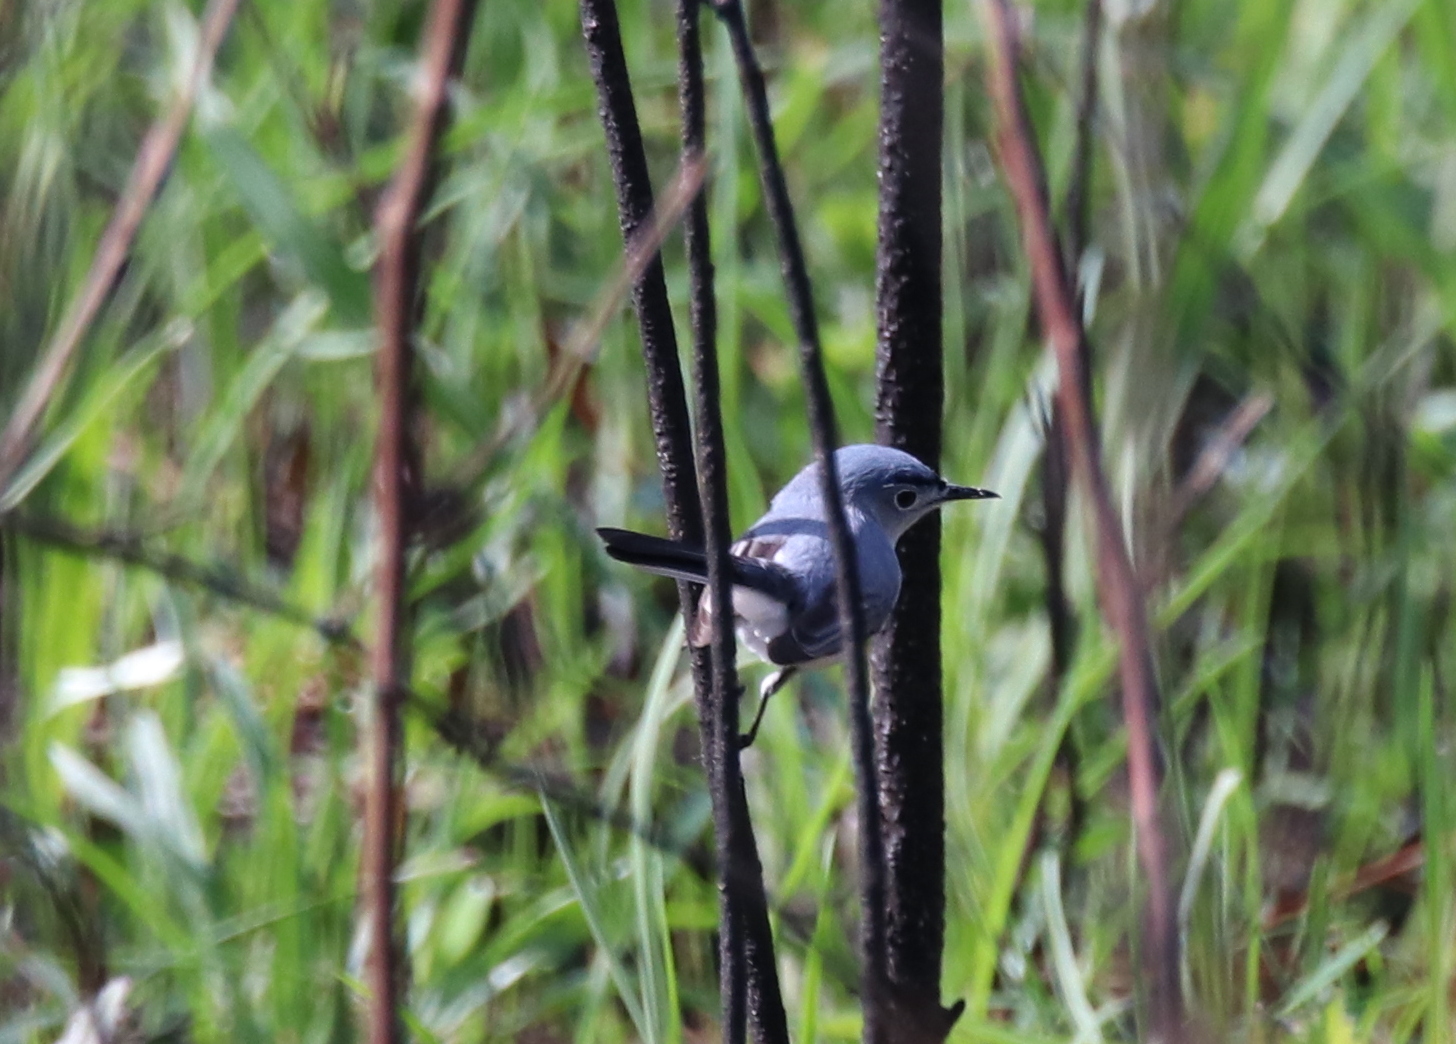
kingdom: Animalia
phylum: Chordata
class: Aves
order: Passeriformes
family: Polioptilidae
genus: Polioptila
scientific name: Polioptila caerulea
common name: Blue-gray gnatcatcher
